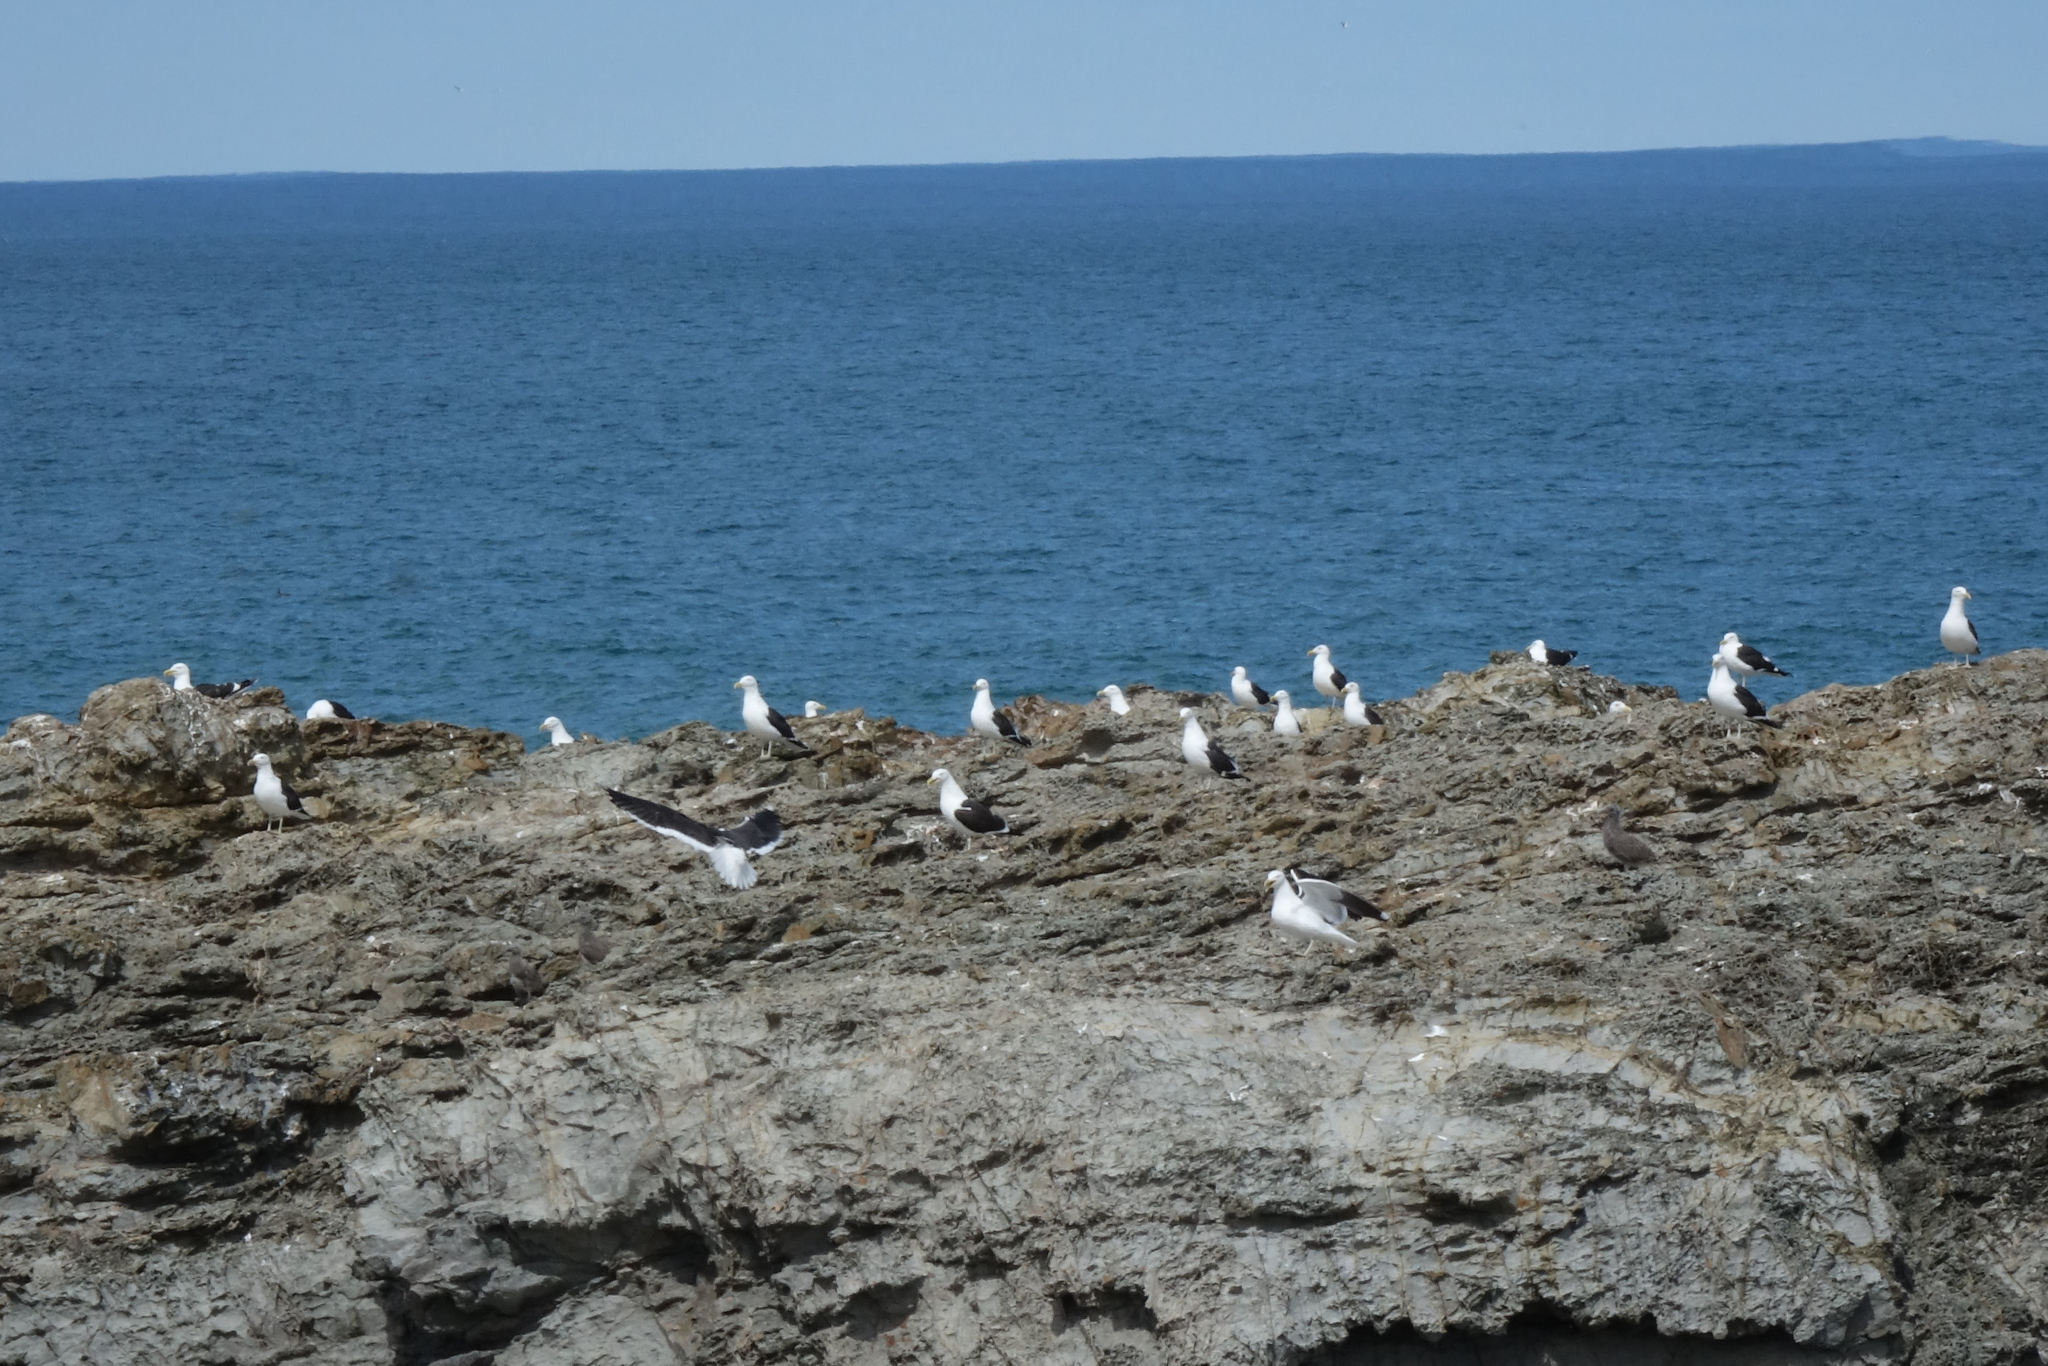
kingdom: Animalia
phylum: Chordata
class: Aves
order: Charadriiformes
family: Laridae
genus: Larus
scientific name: Larus dominicanus
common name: Kelp gull
